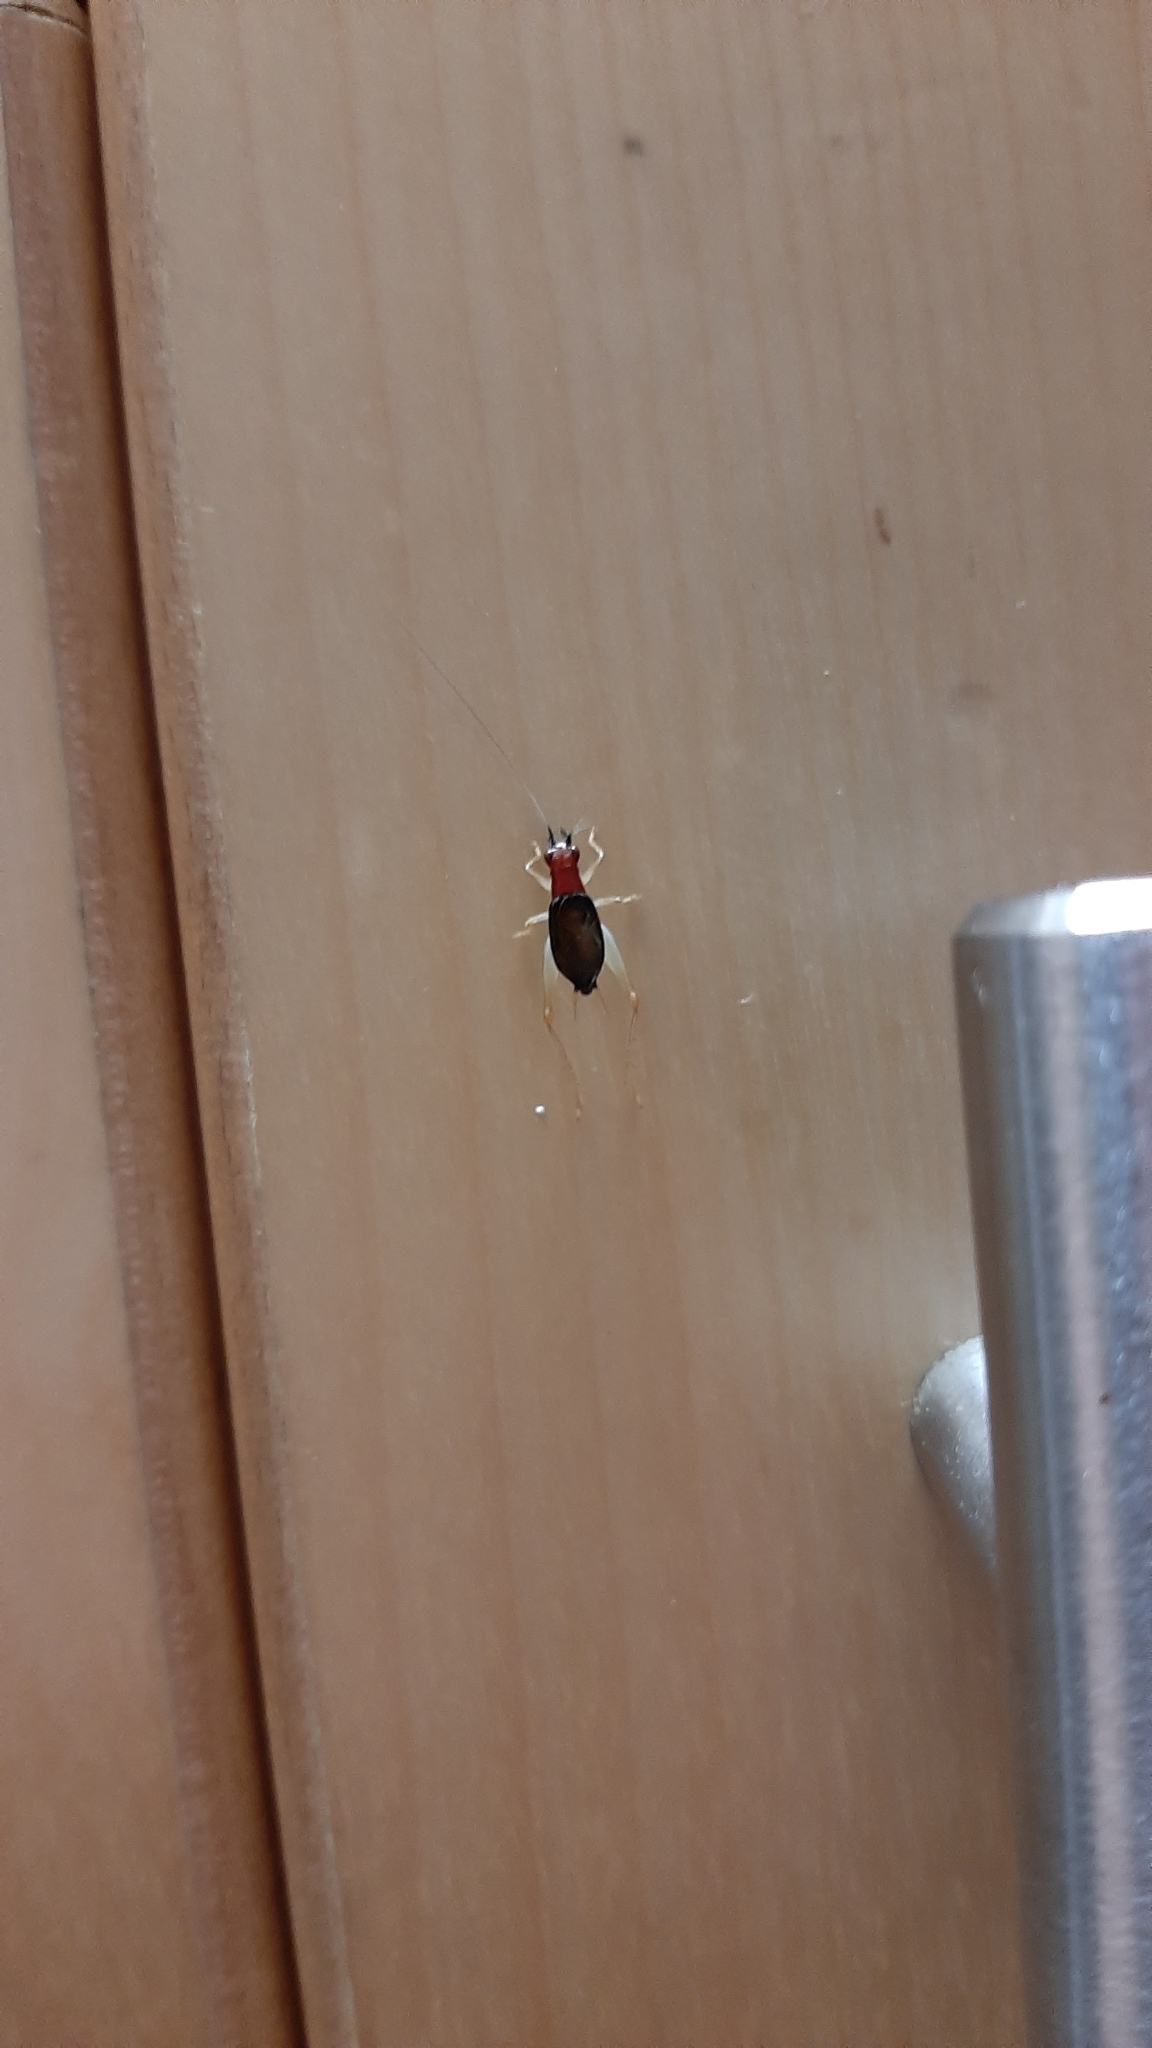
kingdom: Animalia
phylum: Arthropoda
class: Insecta
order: Orthoptera
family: Trigonidiidae
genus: Phyllopalpus
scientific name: Phyllopalpus pulchellus
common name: Handsome trig
